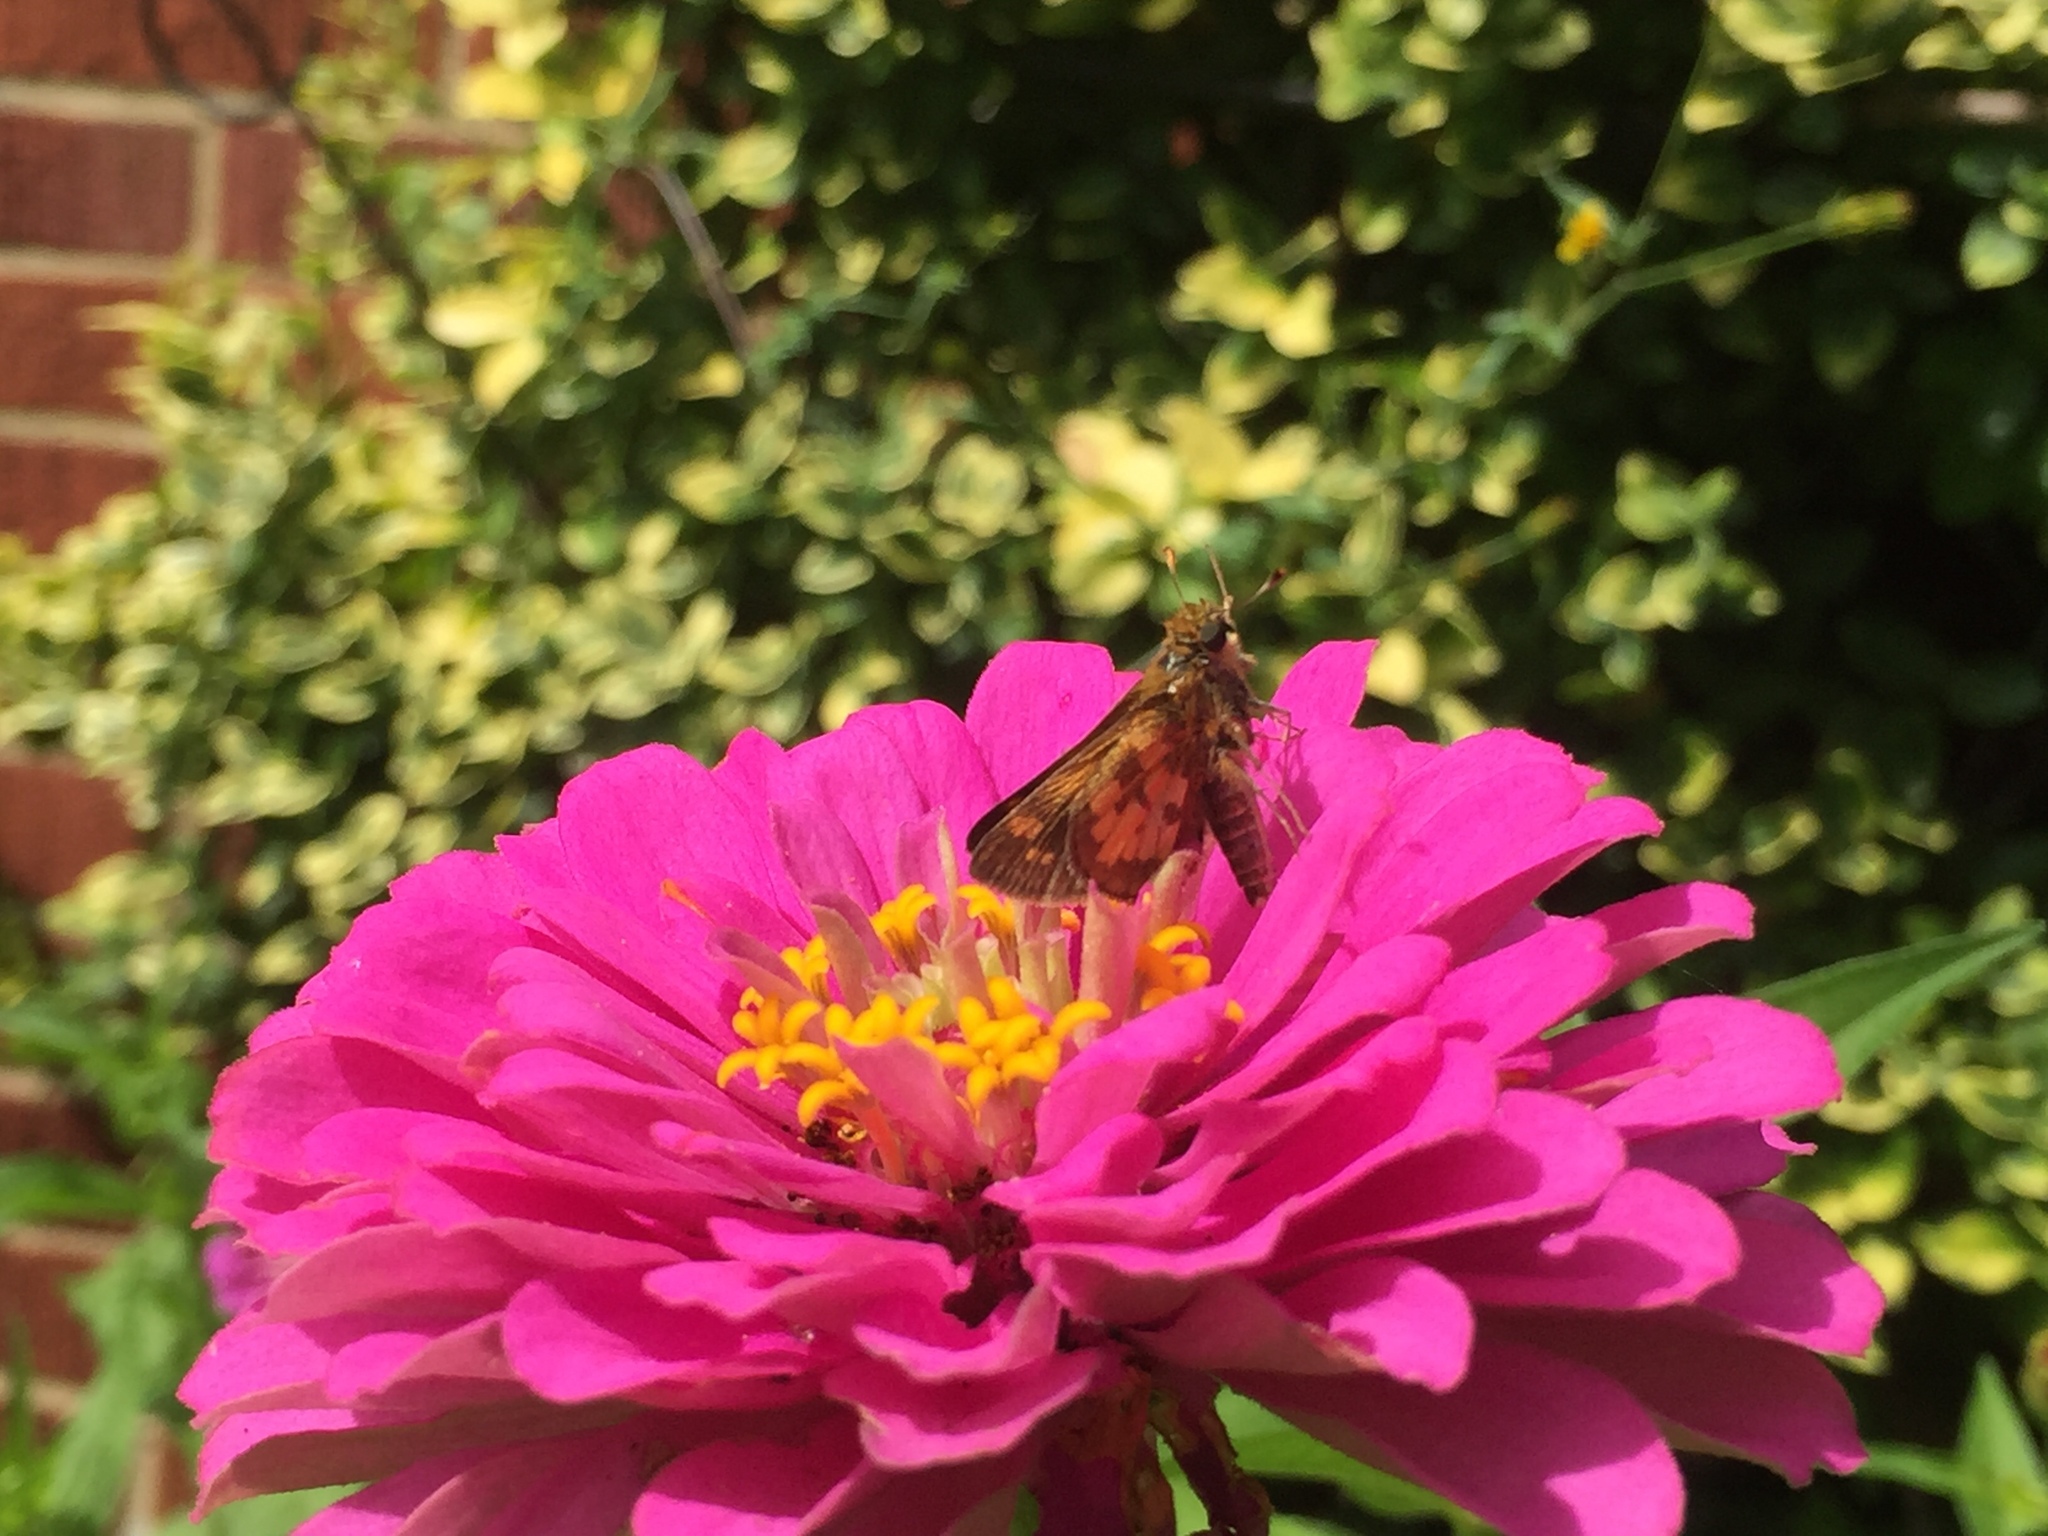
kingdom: Animalia
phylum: Arthropoda
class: Insecta
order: Lepidoptera
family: Hesperiidae
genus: Polites
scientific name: Polites coras
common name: Peck's skipper
